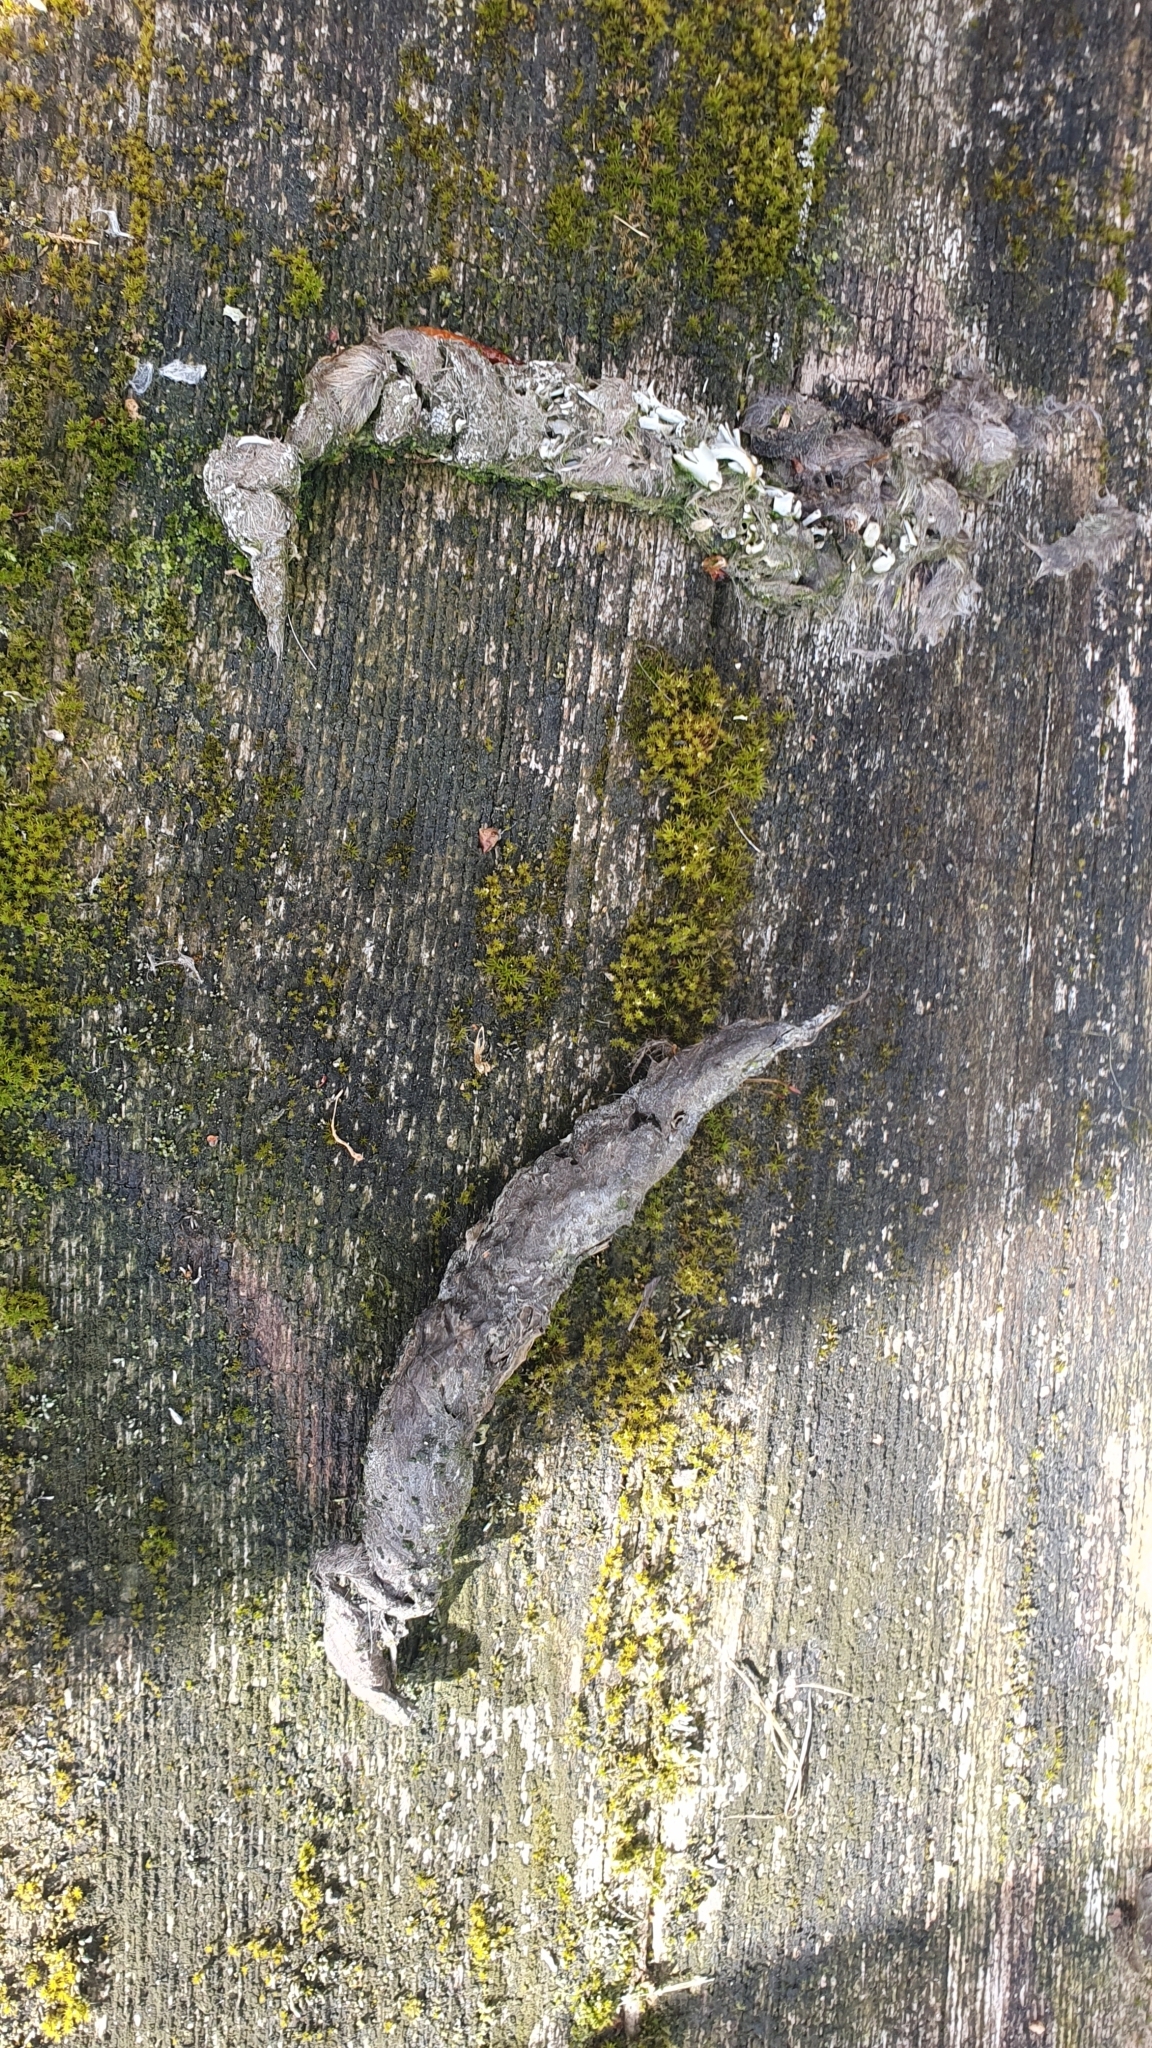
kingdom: Animalia
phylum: Chordata
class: Mammalia
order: Carnivora
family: Viverridae
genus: Genetta
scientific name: Genetta genetta
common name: Common genet
